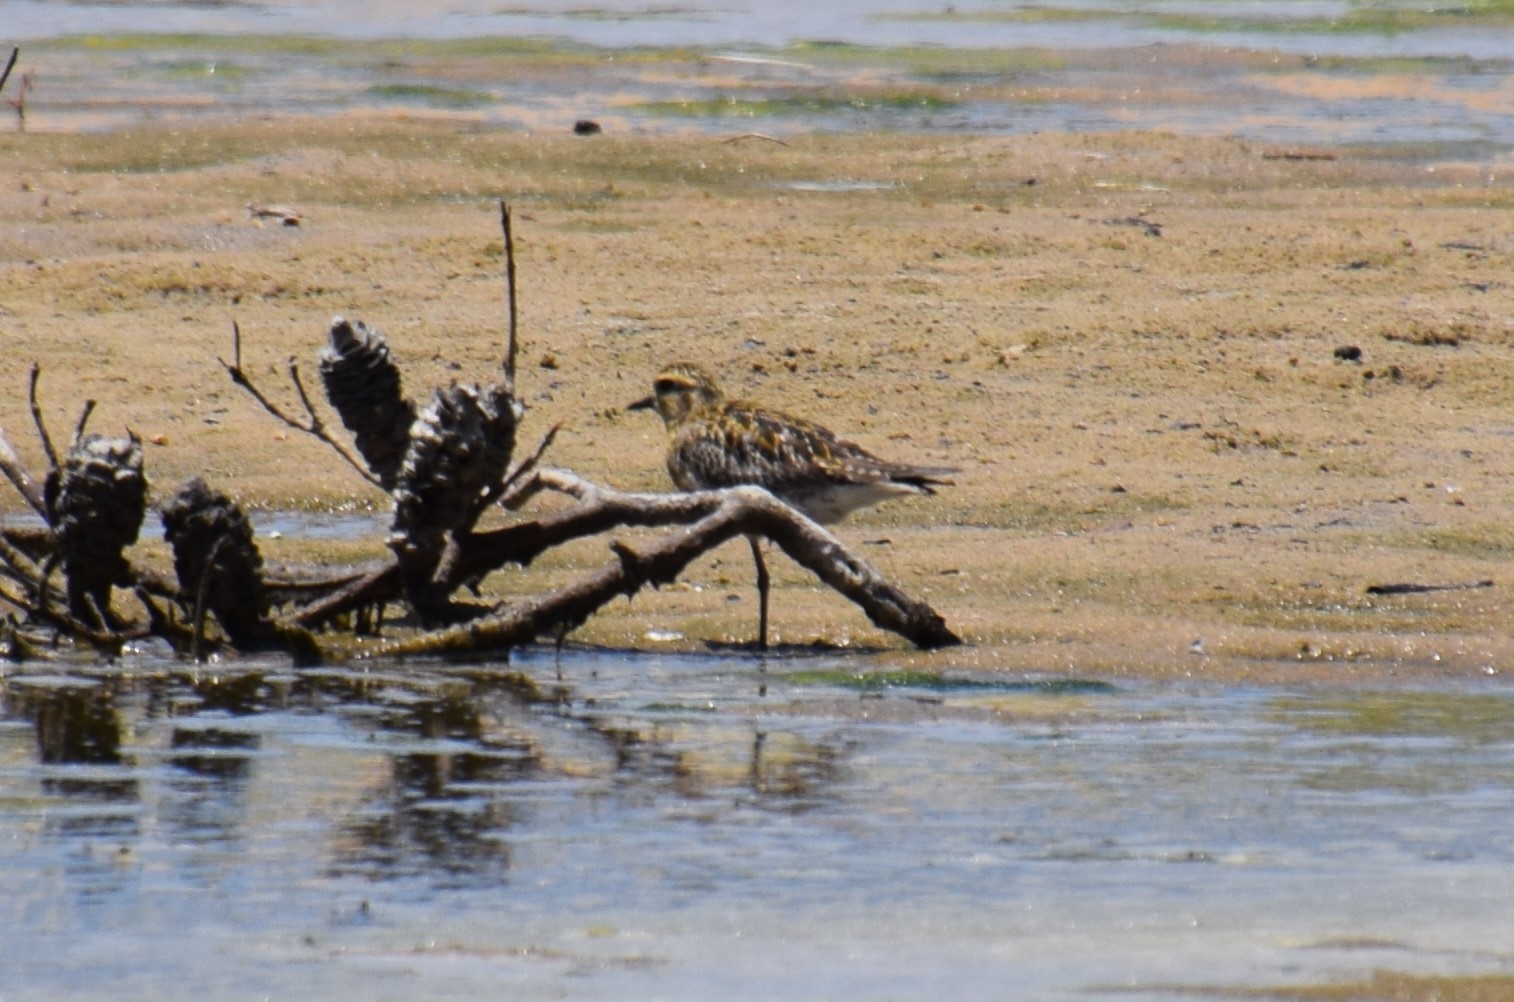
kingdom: Animalia
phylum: Chordata
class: Aves
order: Charadriiformes
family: Charadriidae
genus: Pluvialis
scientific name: Pluvialis fulva
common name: Pacific golden plover
